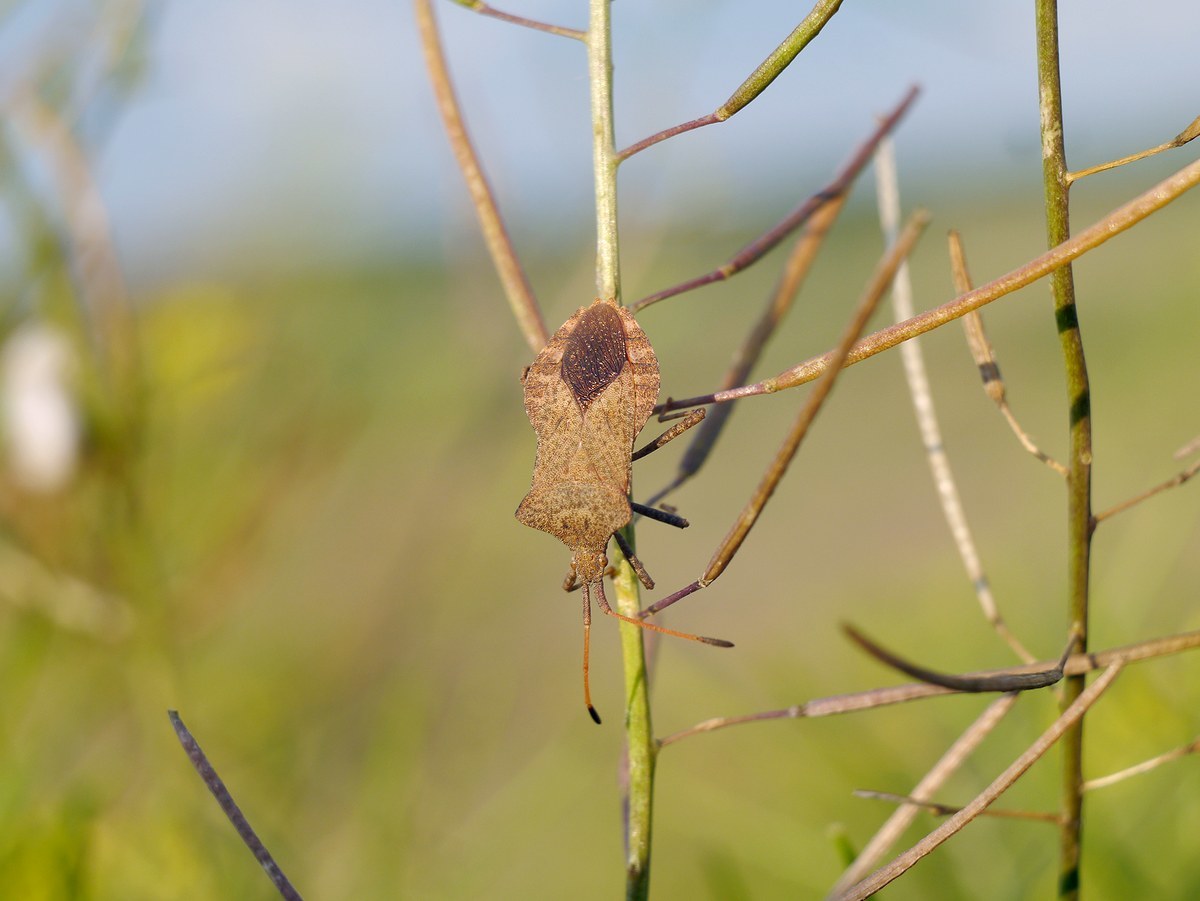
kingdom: Animalia
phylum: Arthropoda
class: Insecta
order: Hemiptera
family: Coreidae
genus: Coreus
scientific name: Coreus marginatus
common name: Dock bug
